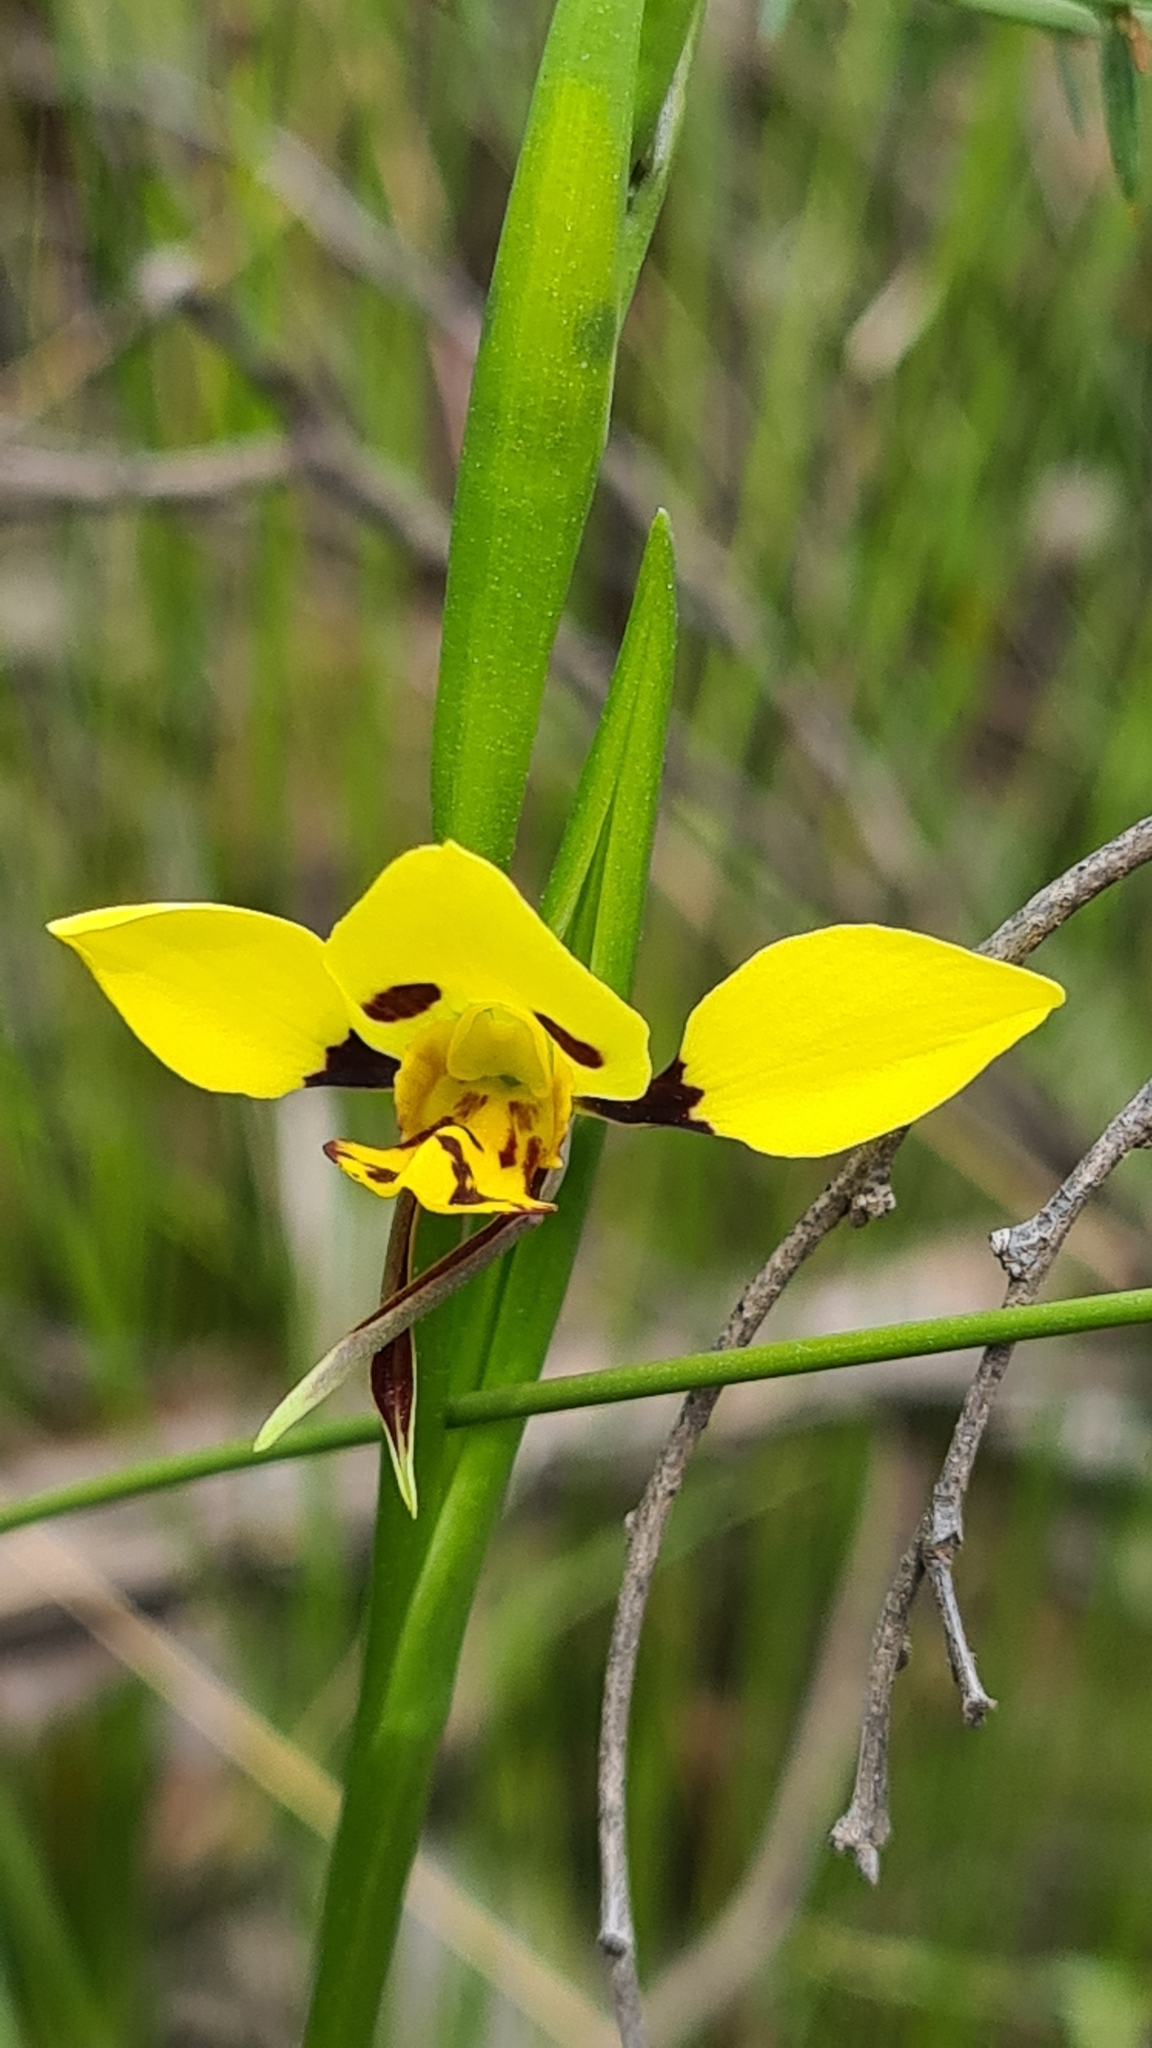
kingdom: Plantae
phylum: Tracheophyta
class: Liliopsida
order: Asparagales
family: Orchidaceae
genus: Diuris
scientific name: Diuris sulphurea
